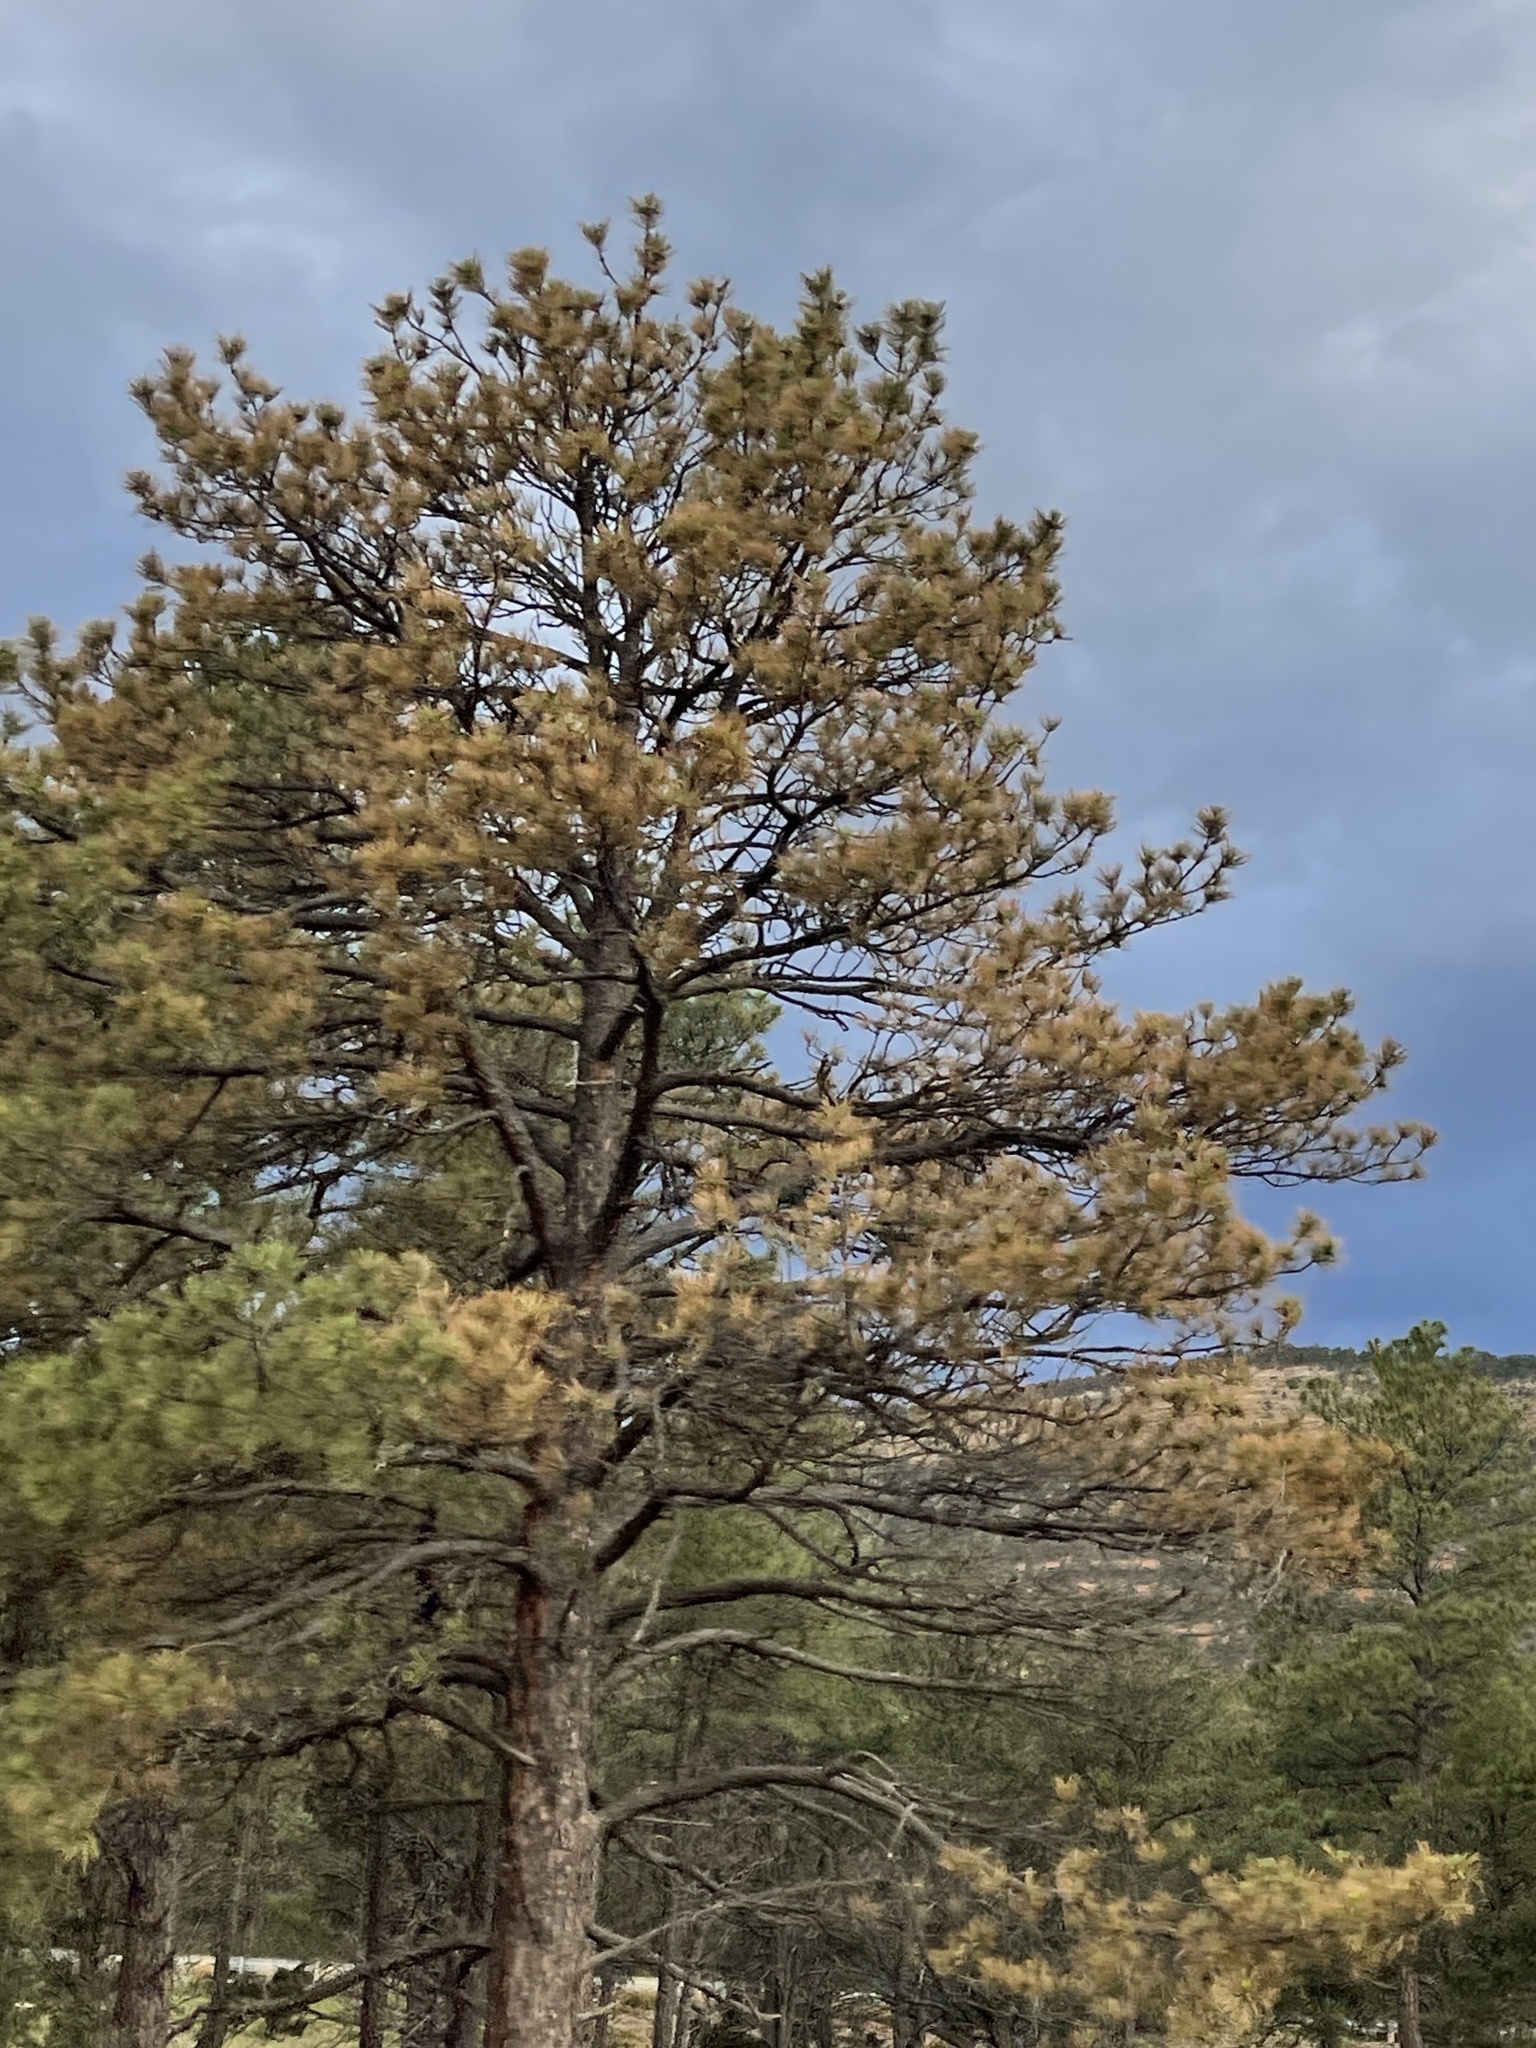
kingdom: Plantae
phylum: Tracheophyta
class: Pinopsida
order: Pinales
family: Pinaceae
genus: Pinus
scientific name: Pinus ponderosa
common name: Western yellow-pine
